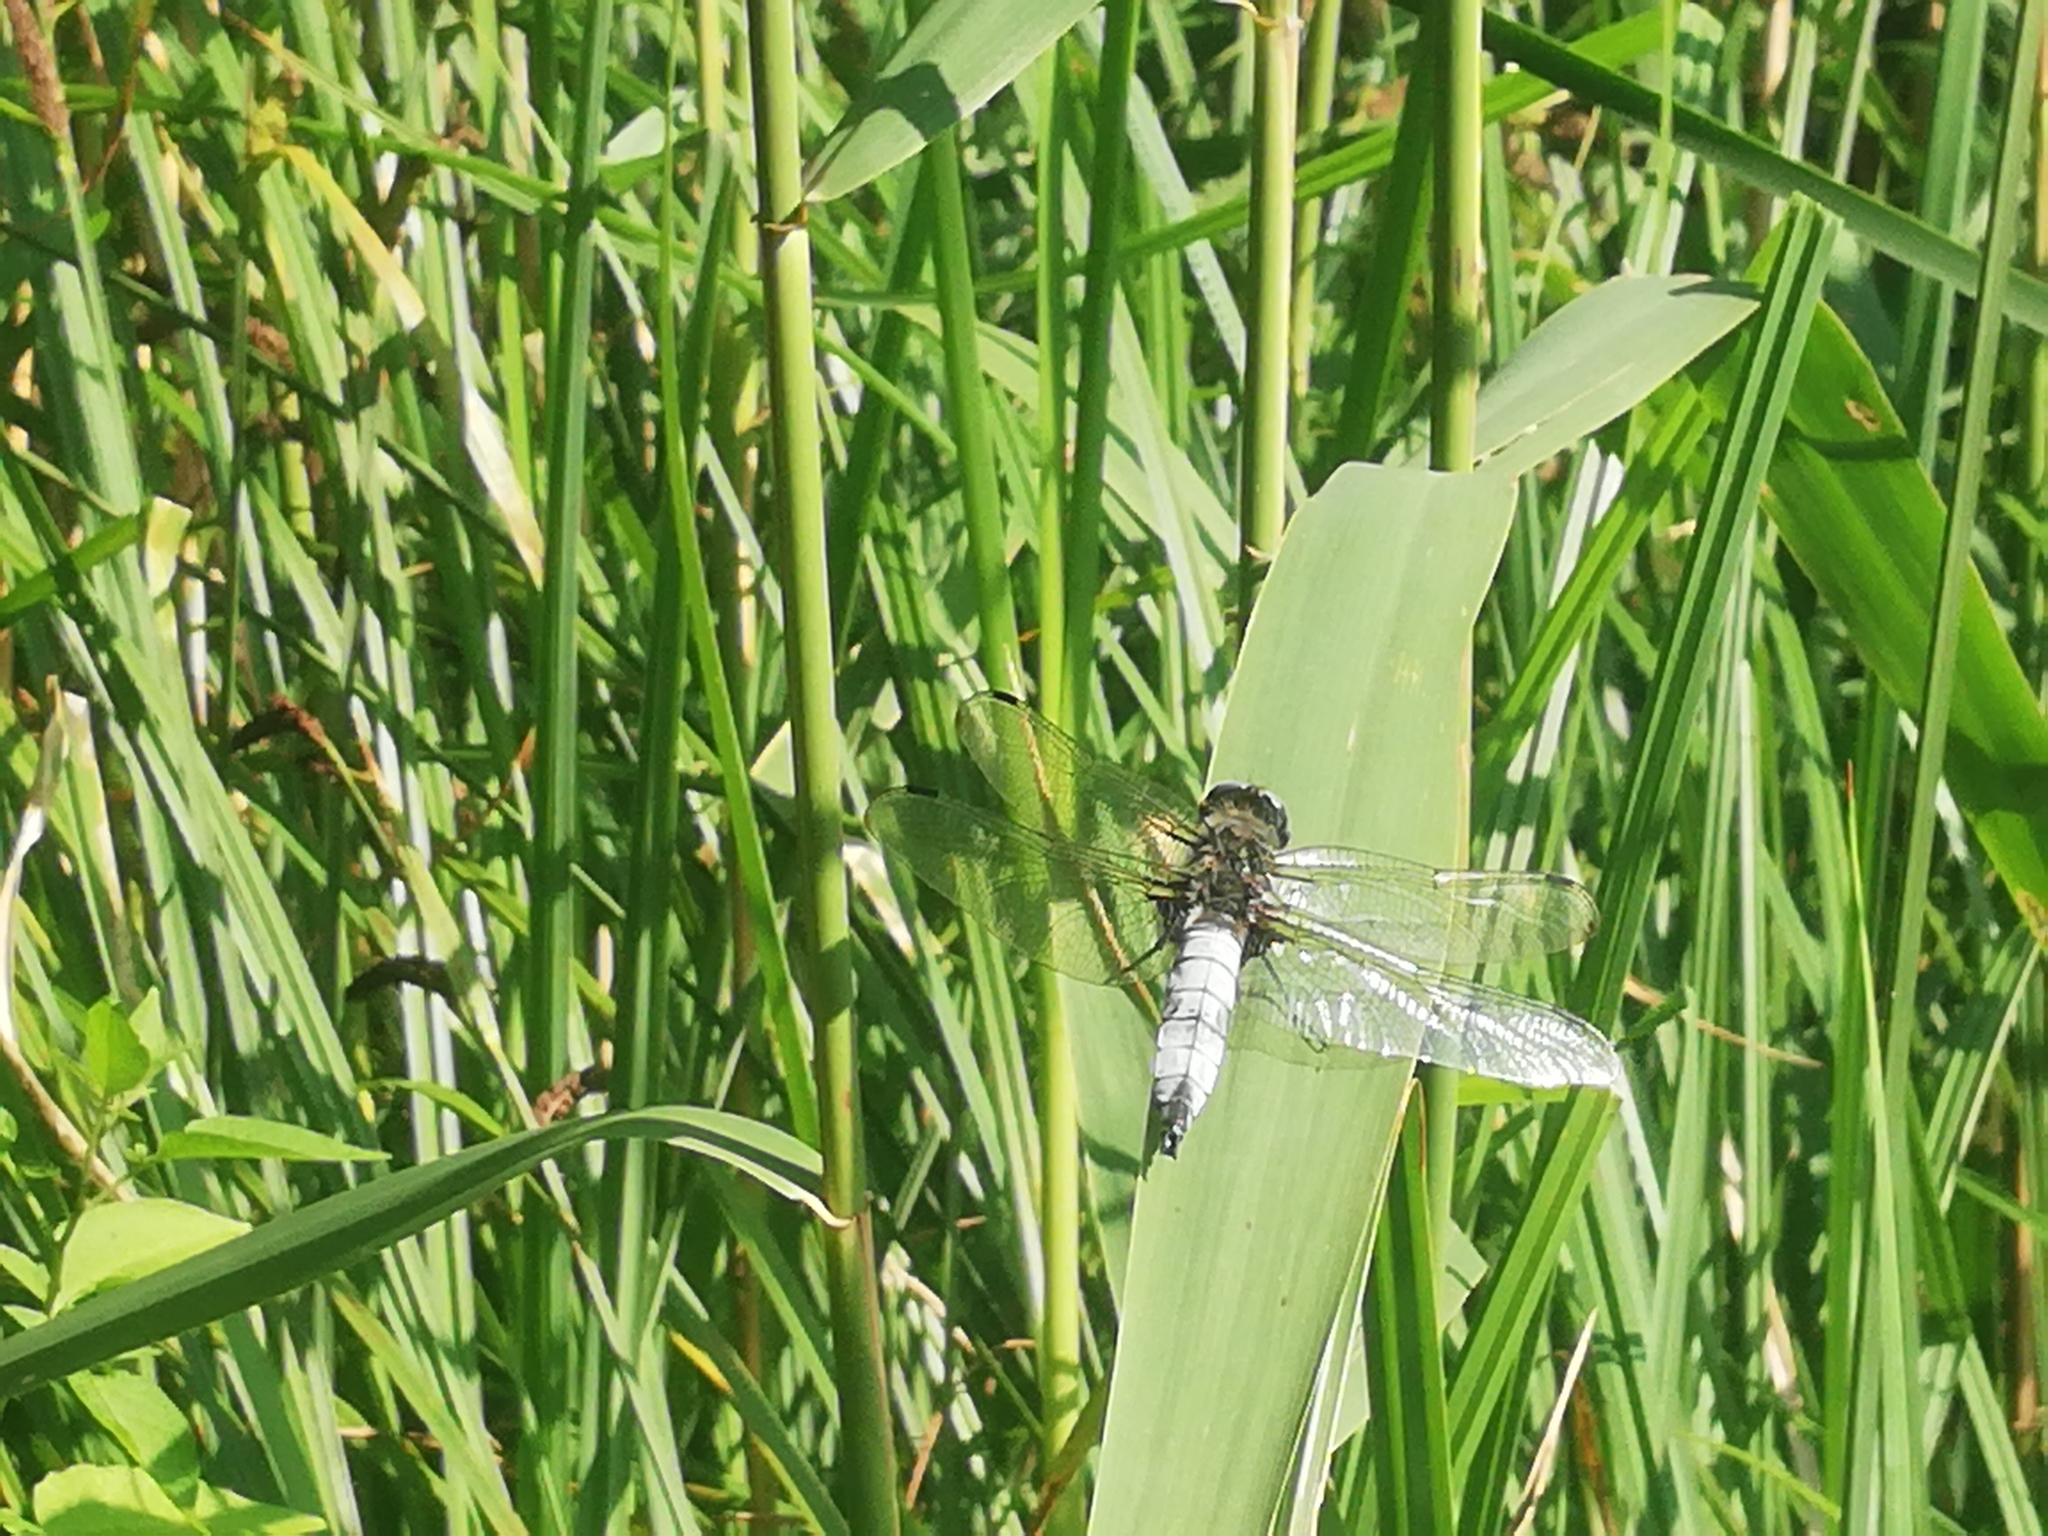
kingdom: Animalia
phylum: Arthropoda
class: Insecta
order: Odonata
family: Libellulidae
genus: Libellula
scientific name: Libellula fulva
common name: Blue chaser
